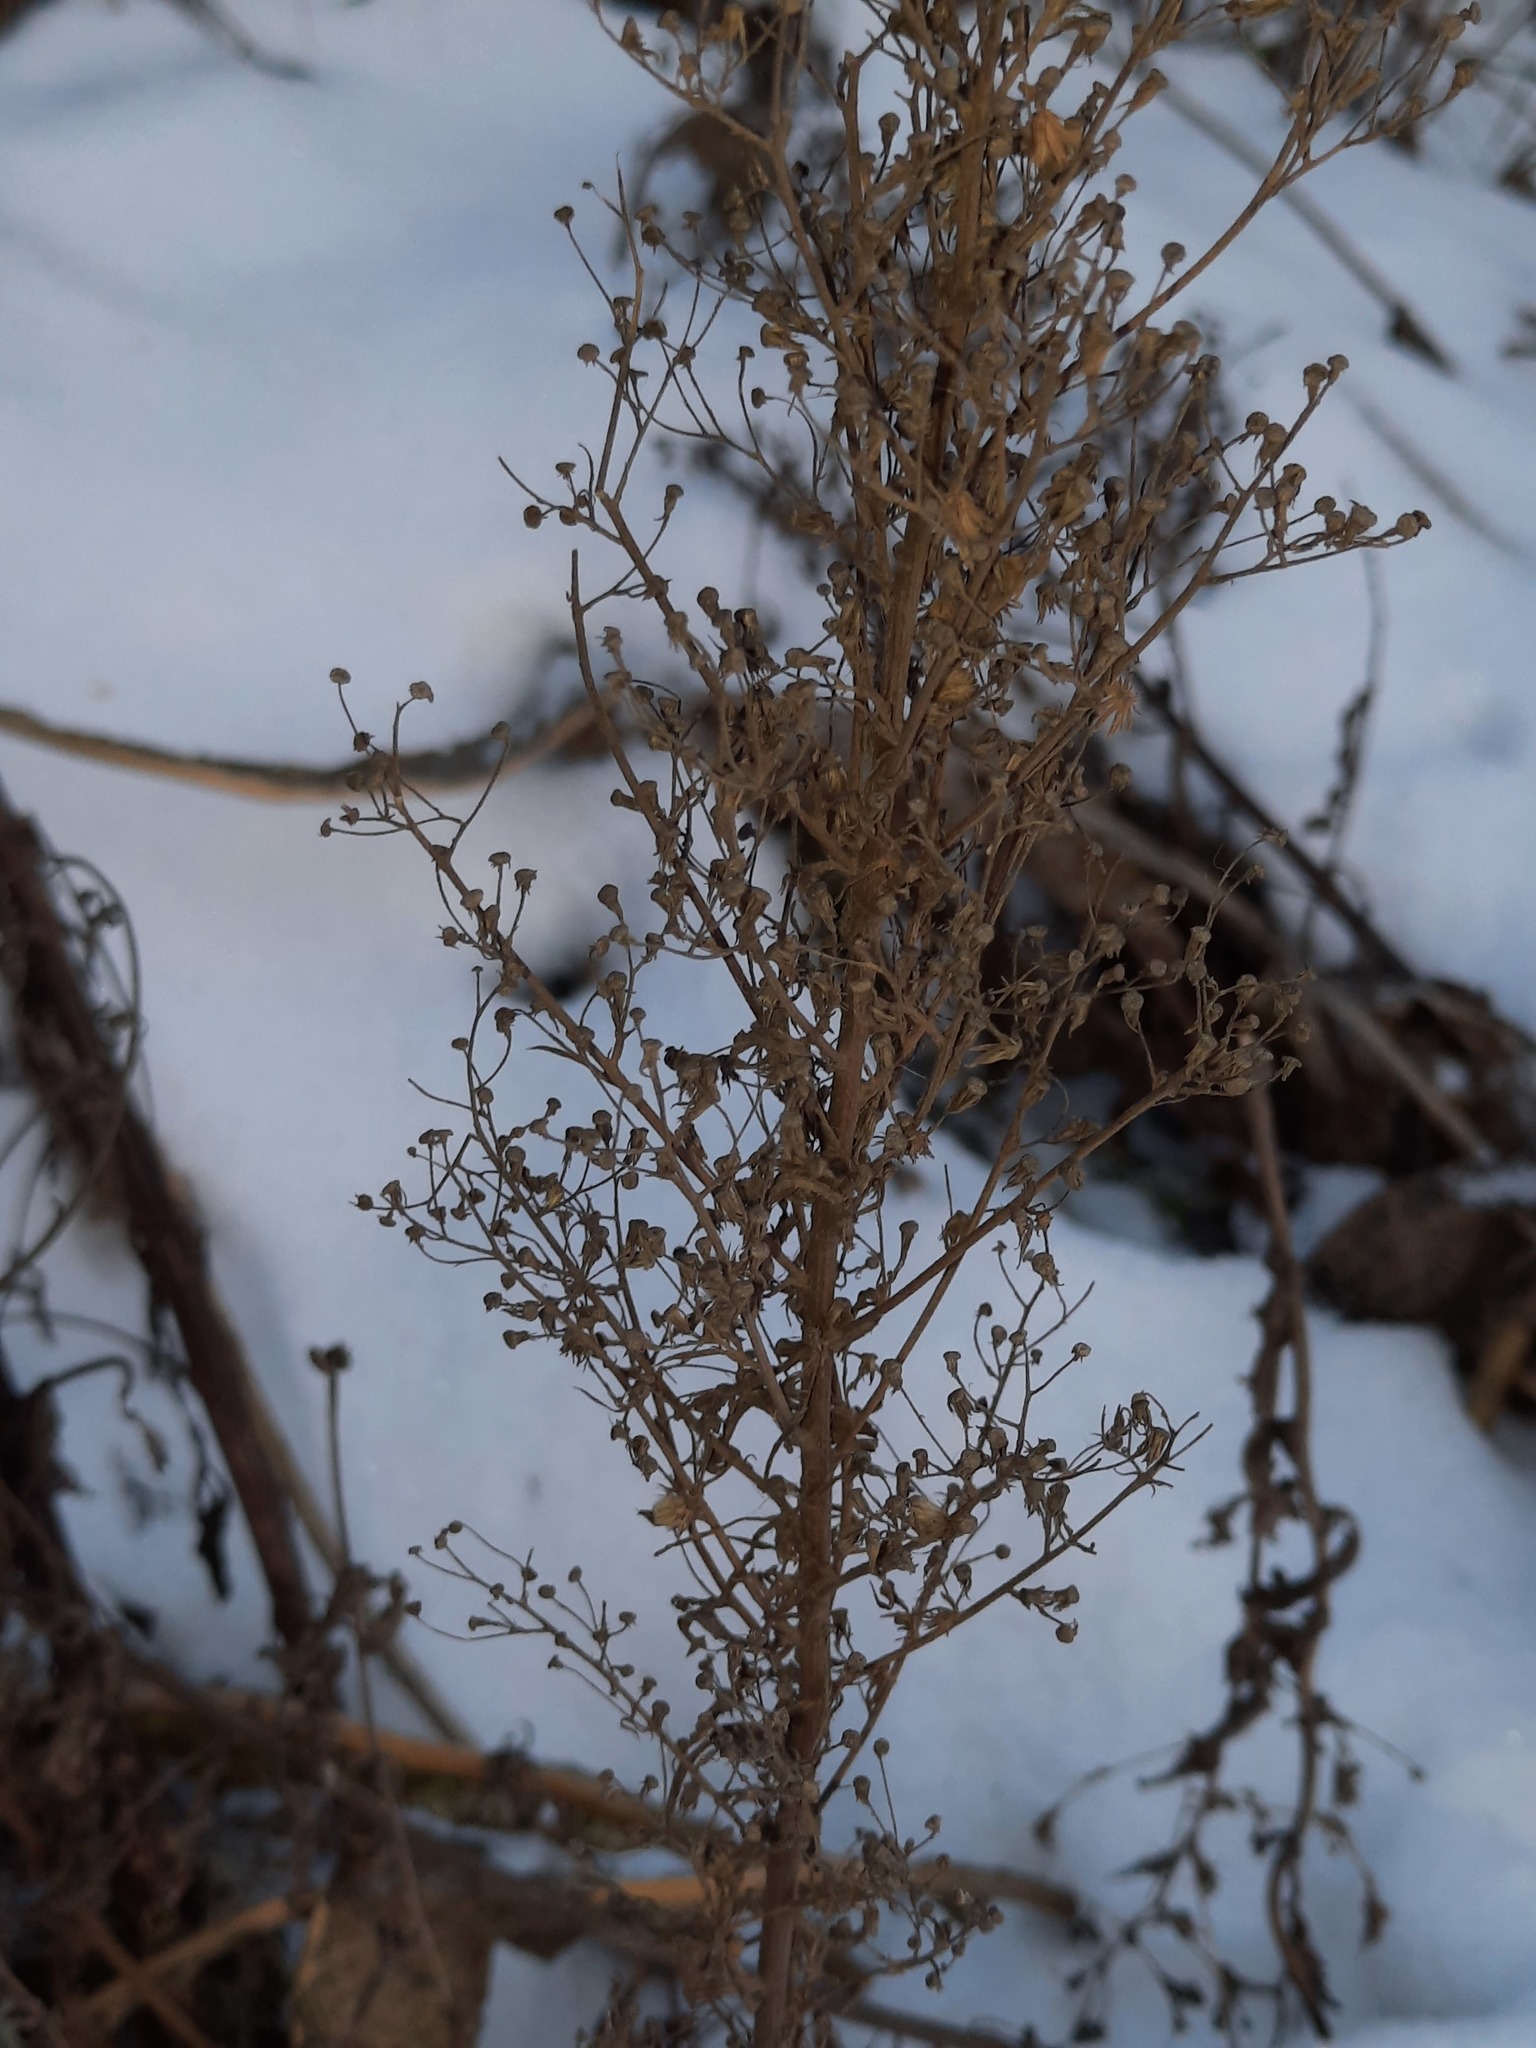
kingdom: Plantae
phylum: Tracheophyta
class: Magnoliopsida
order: Asterales
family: Asteraceae
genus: Erigeron
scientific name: Erigeron canadensis
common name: Canadian fleabane
